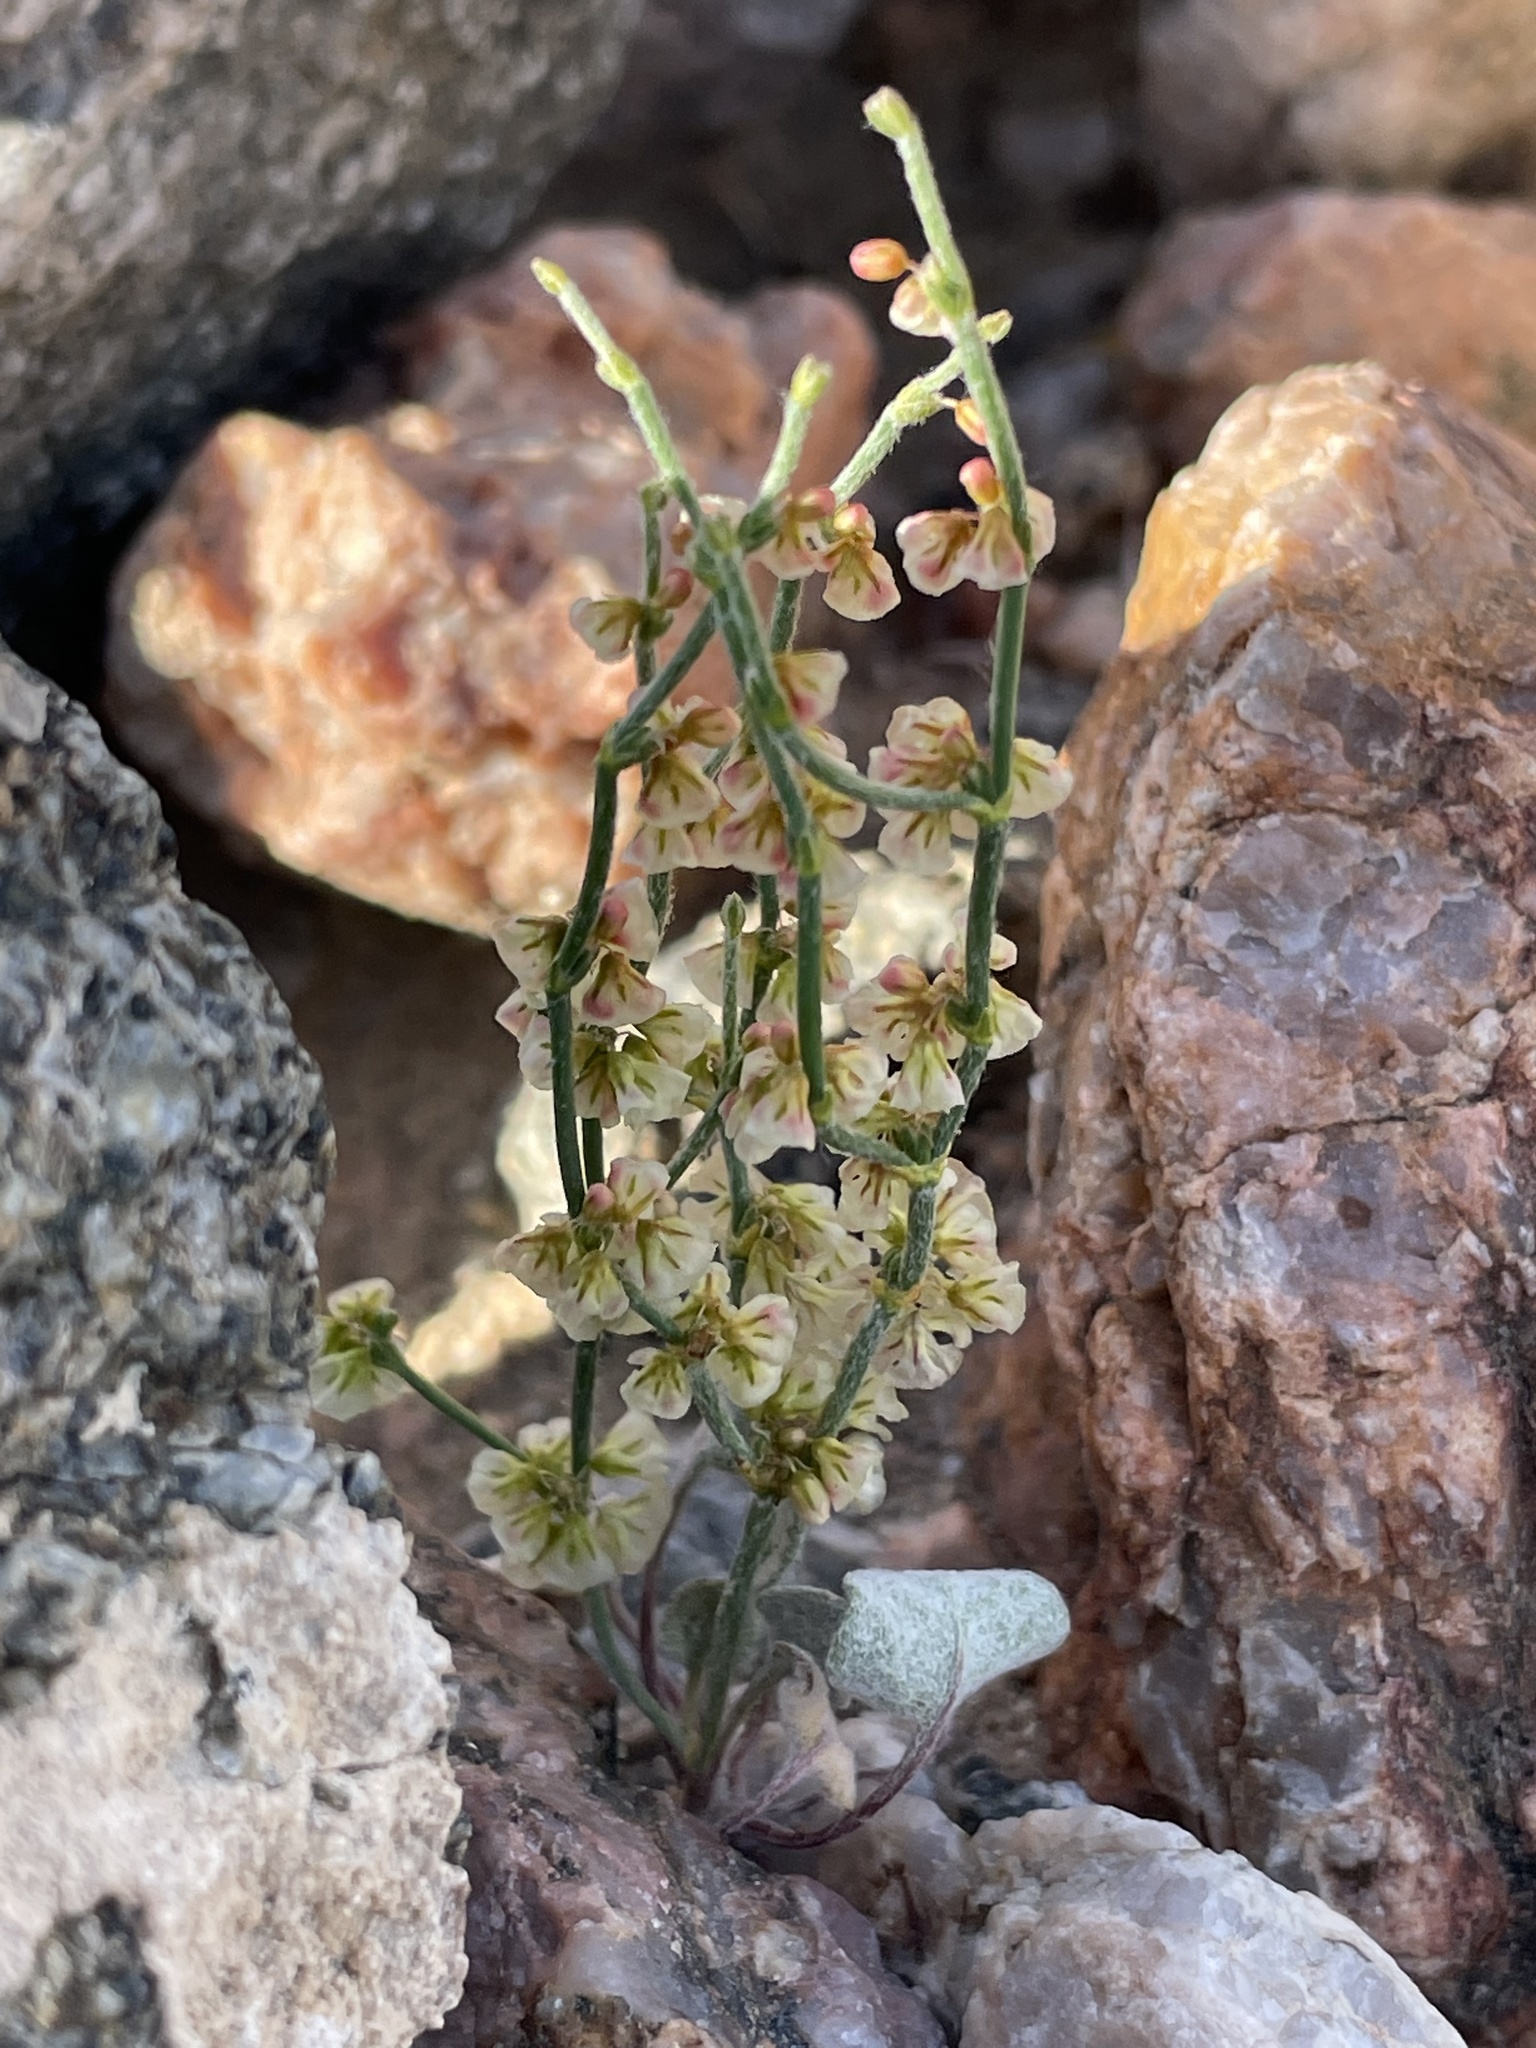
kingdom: Plantae
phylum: Tracheophyta
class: Magnoliopsida
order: Caryophyllales
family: Polygonaceae
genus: Eriogonum
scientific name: Eriogonum nidularium
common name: Bird's-nest wild buckwheat
